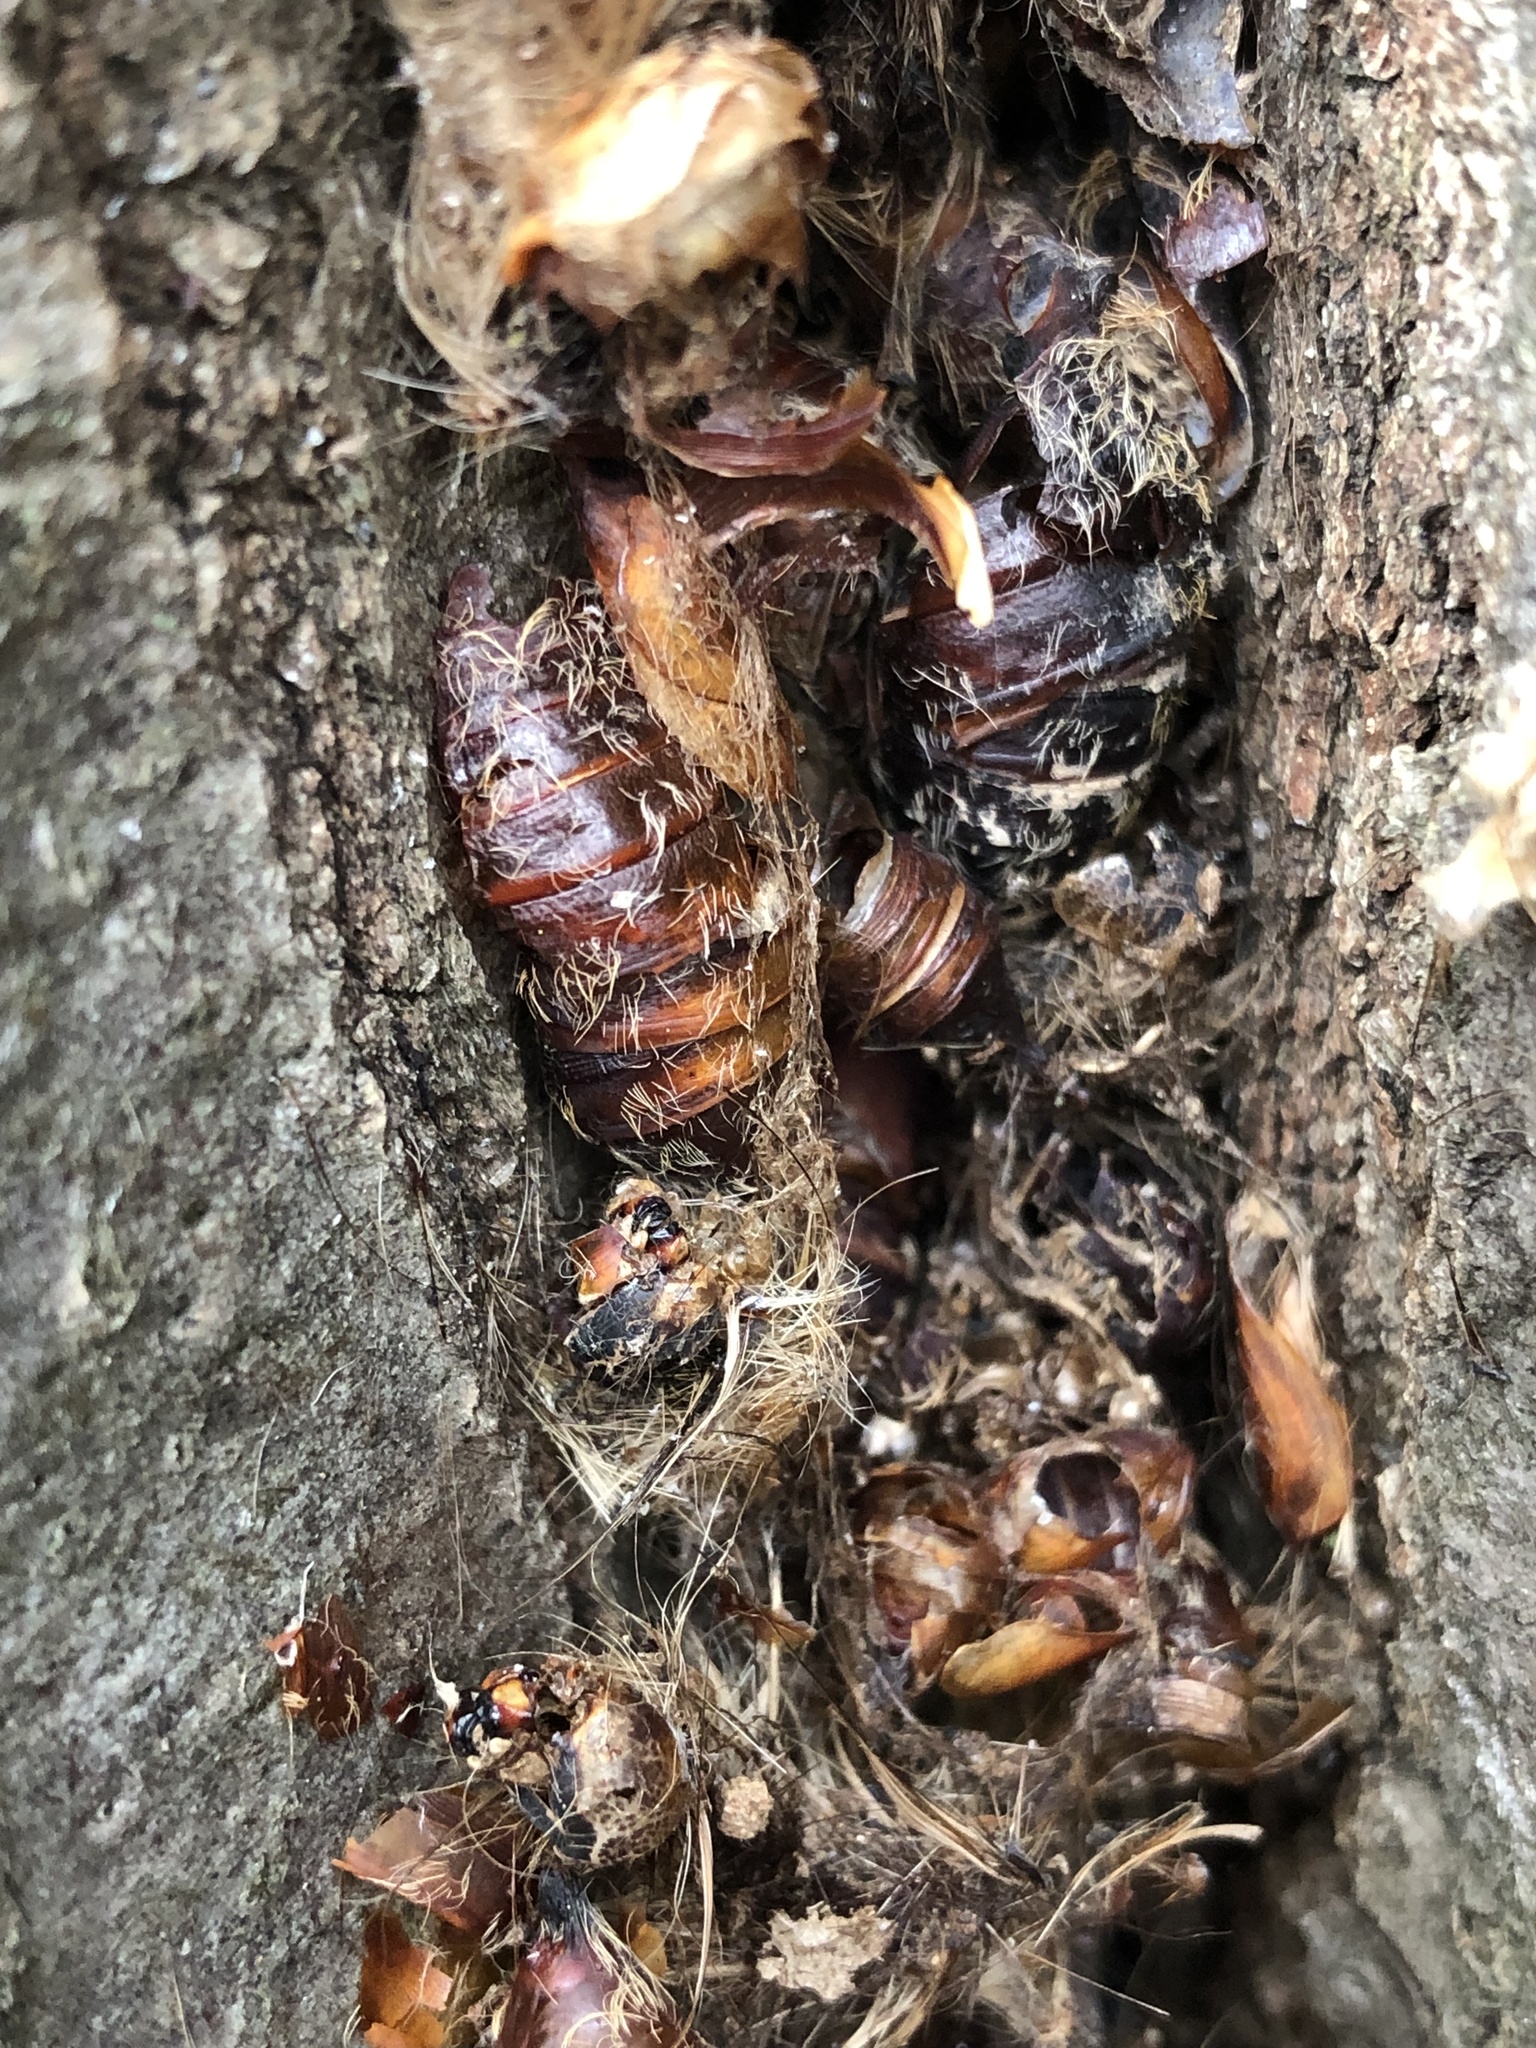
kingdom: Animalia
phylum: Arthropoda
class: Insecta
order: Lepidoptera
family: Erebidae
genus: Lymantria
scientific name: Lymantria dispar
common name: Gypsy moth
